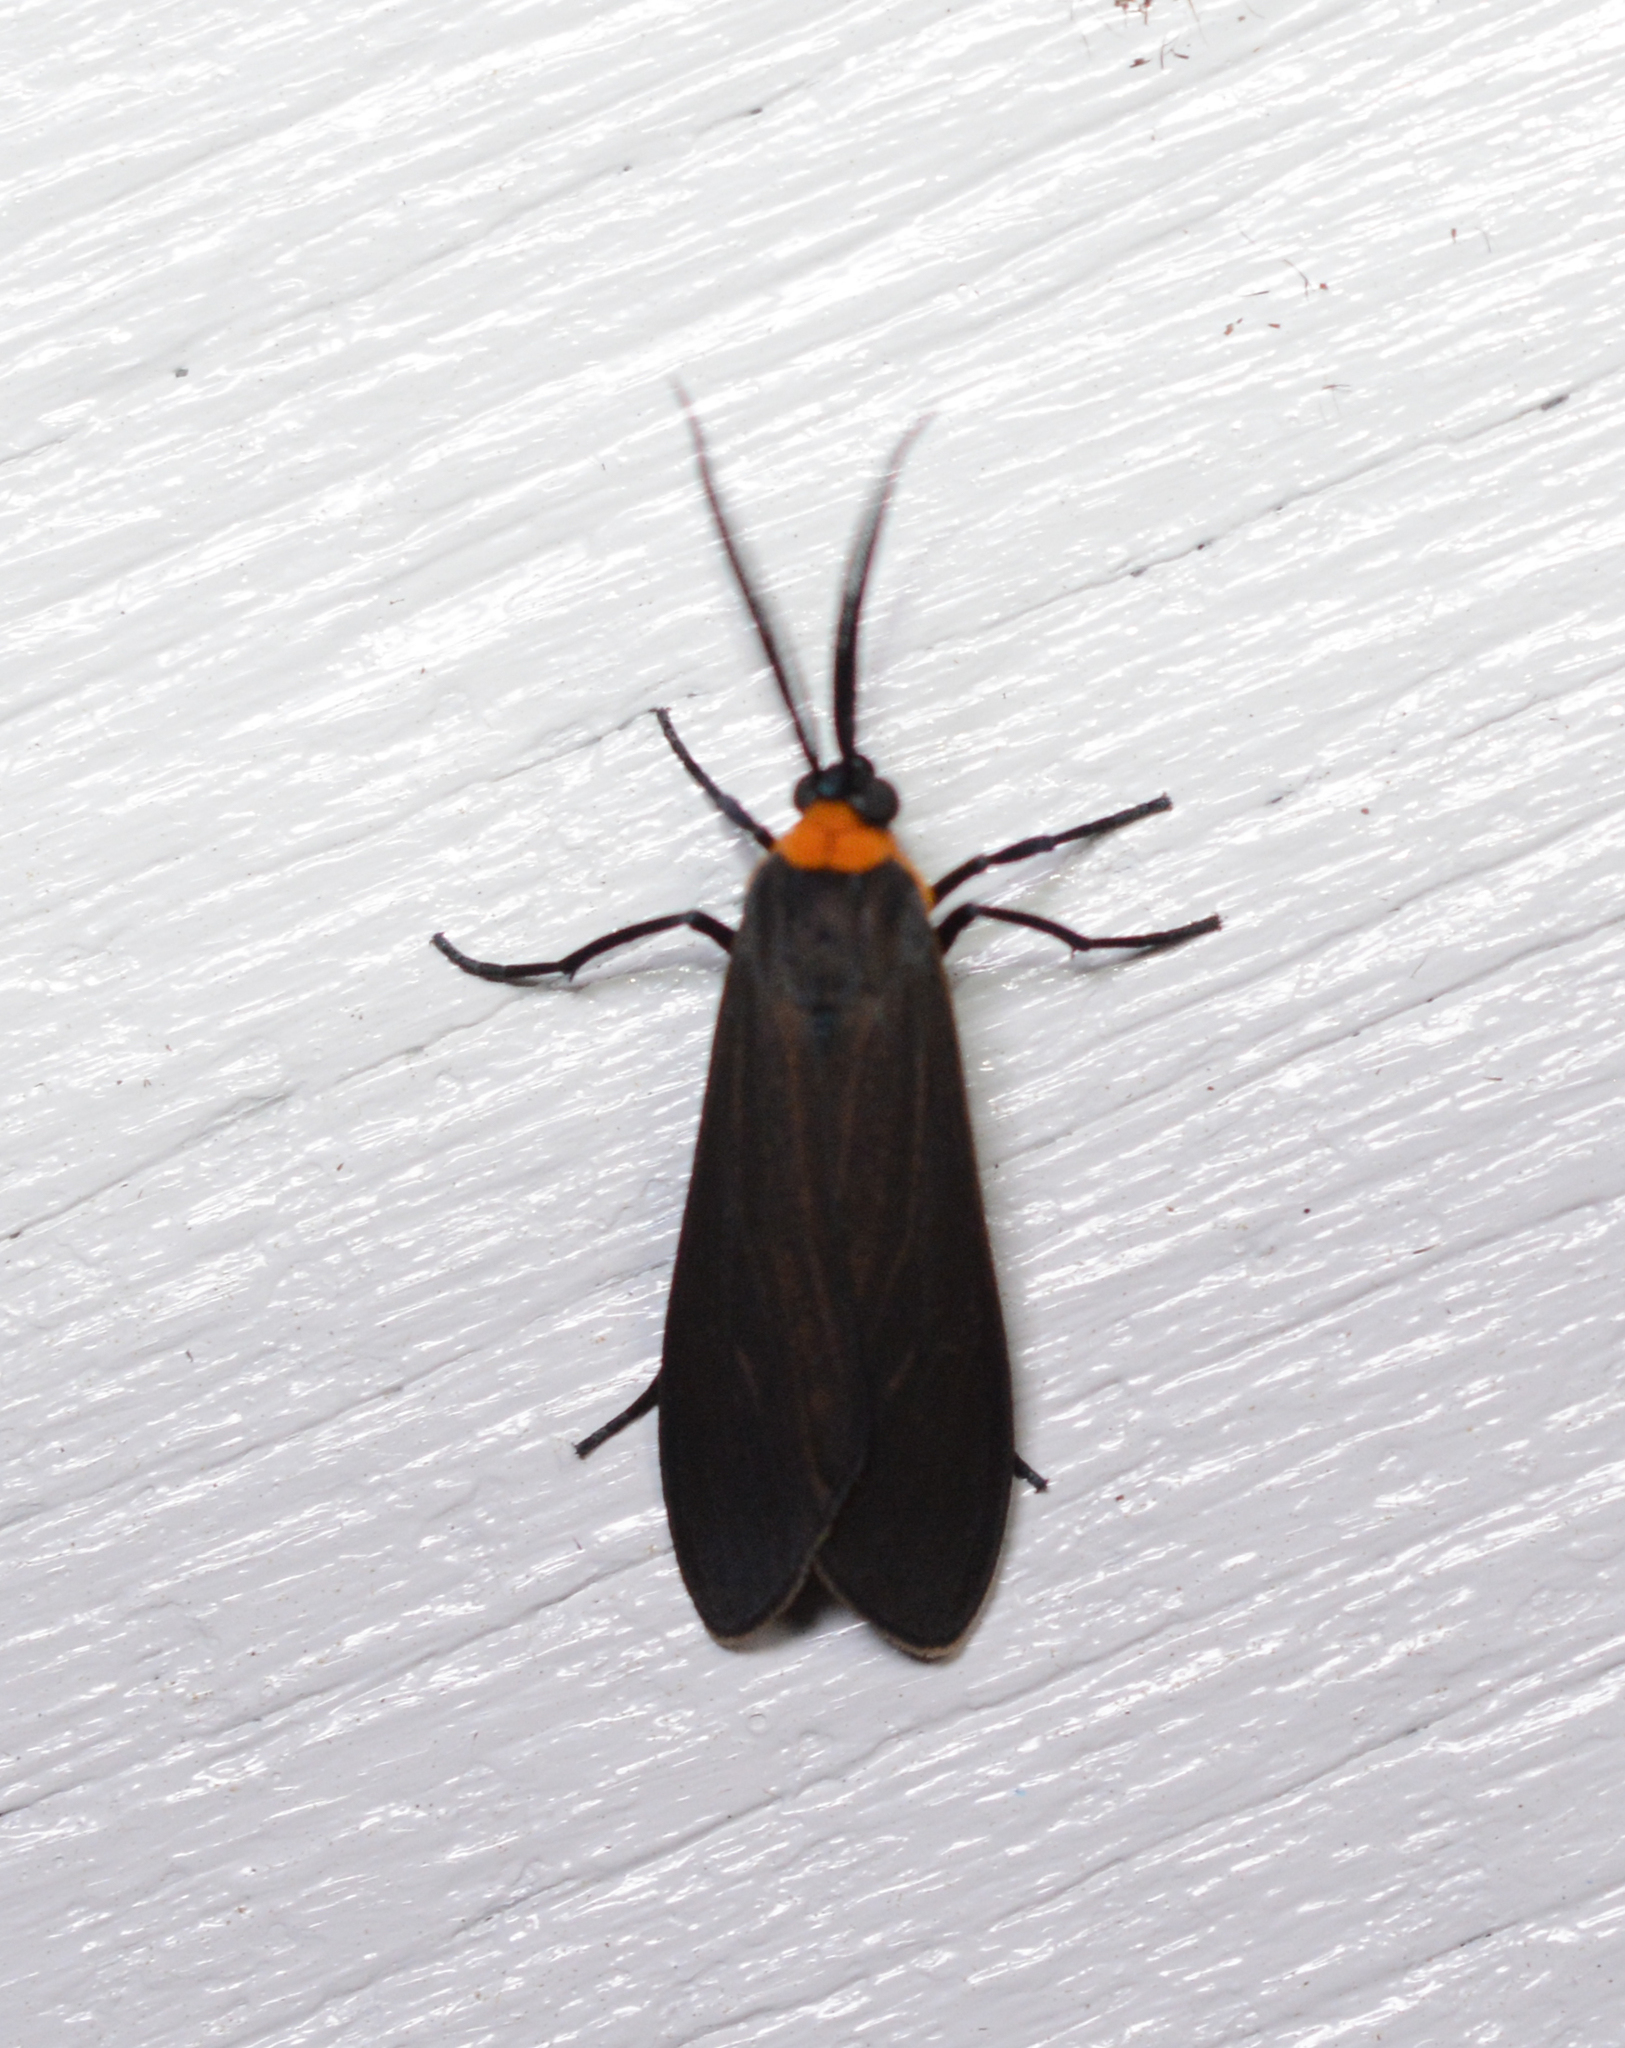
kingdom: Animalia
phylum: Arthropoda
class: Insecta
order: Lepidoptera
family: Erebidae
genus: Cisseps
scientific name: Cisseps fulvicollis
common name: Yellow-collared scape moth
